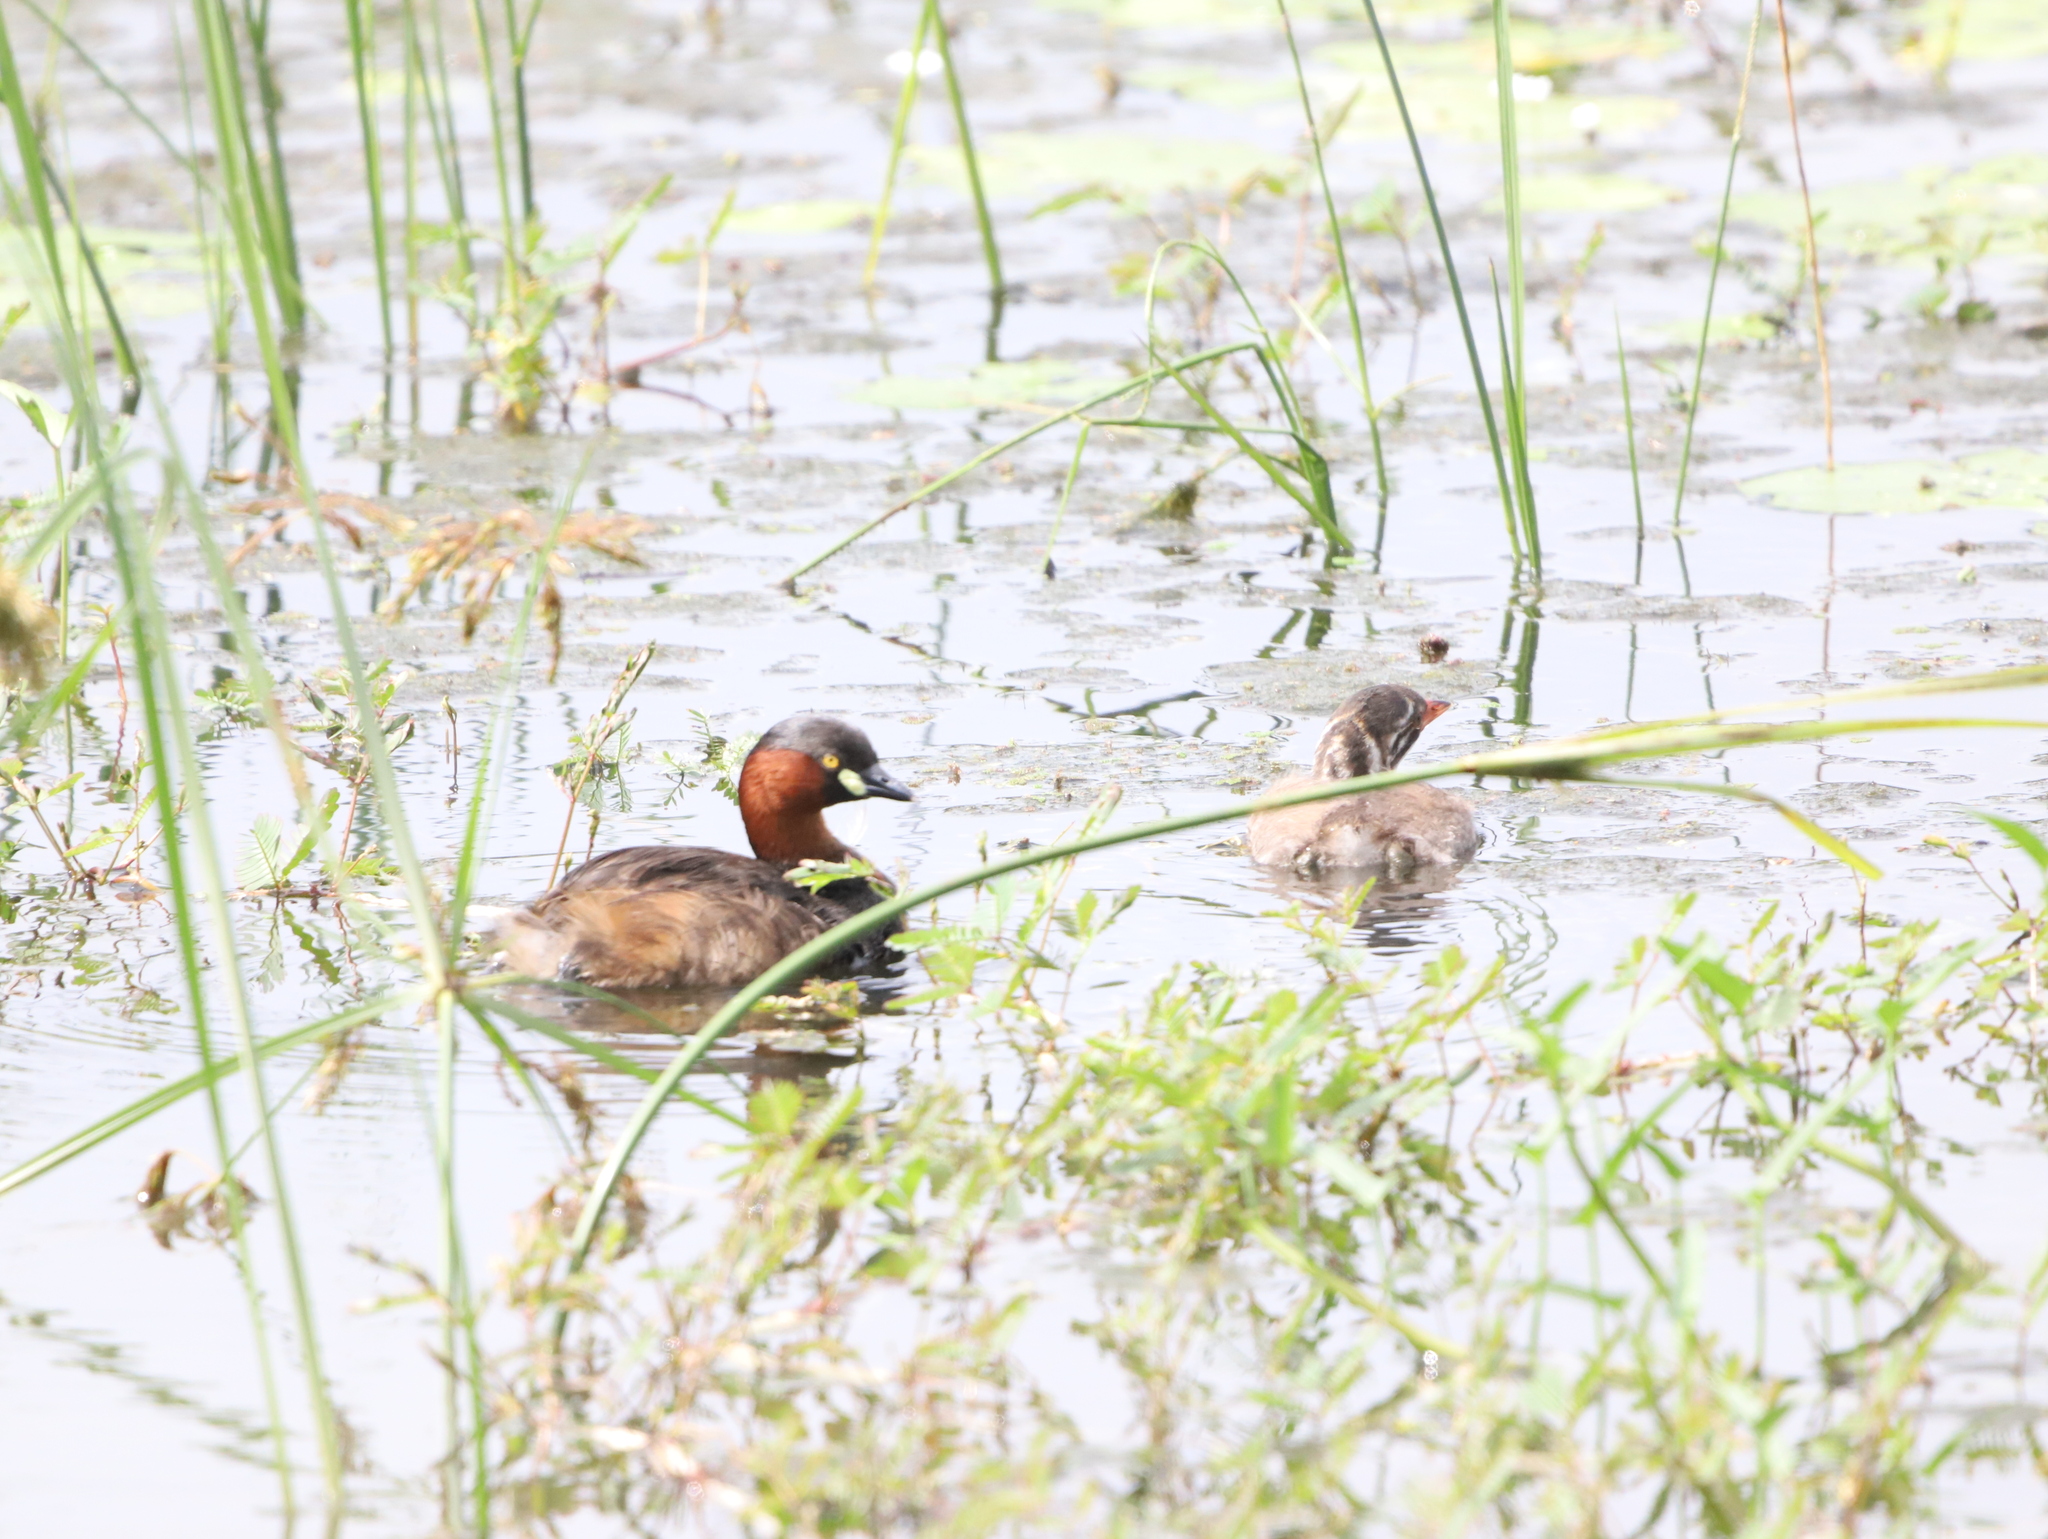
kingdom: Animalia
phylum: Chordata
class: Aves
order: Podicipediformes
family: Podicipedidae
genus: Tachybaptus
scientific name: Tachybaptus ruficollis
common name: Little grebe
